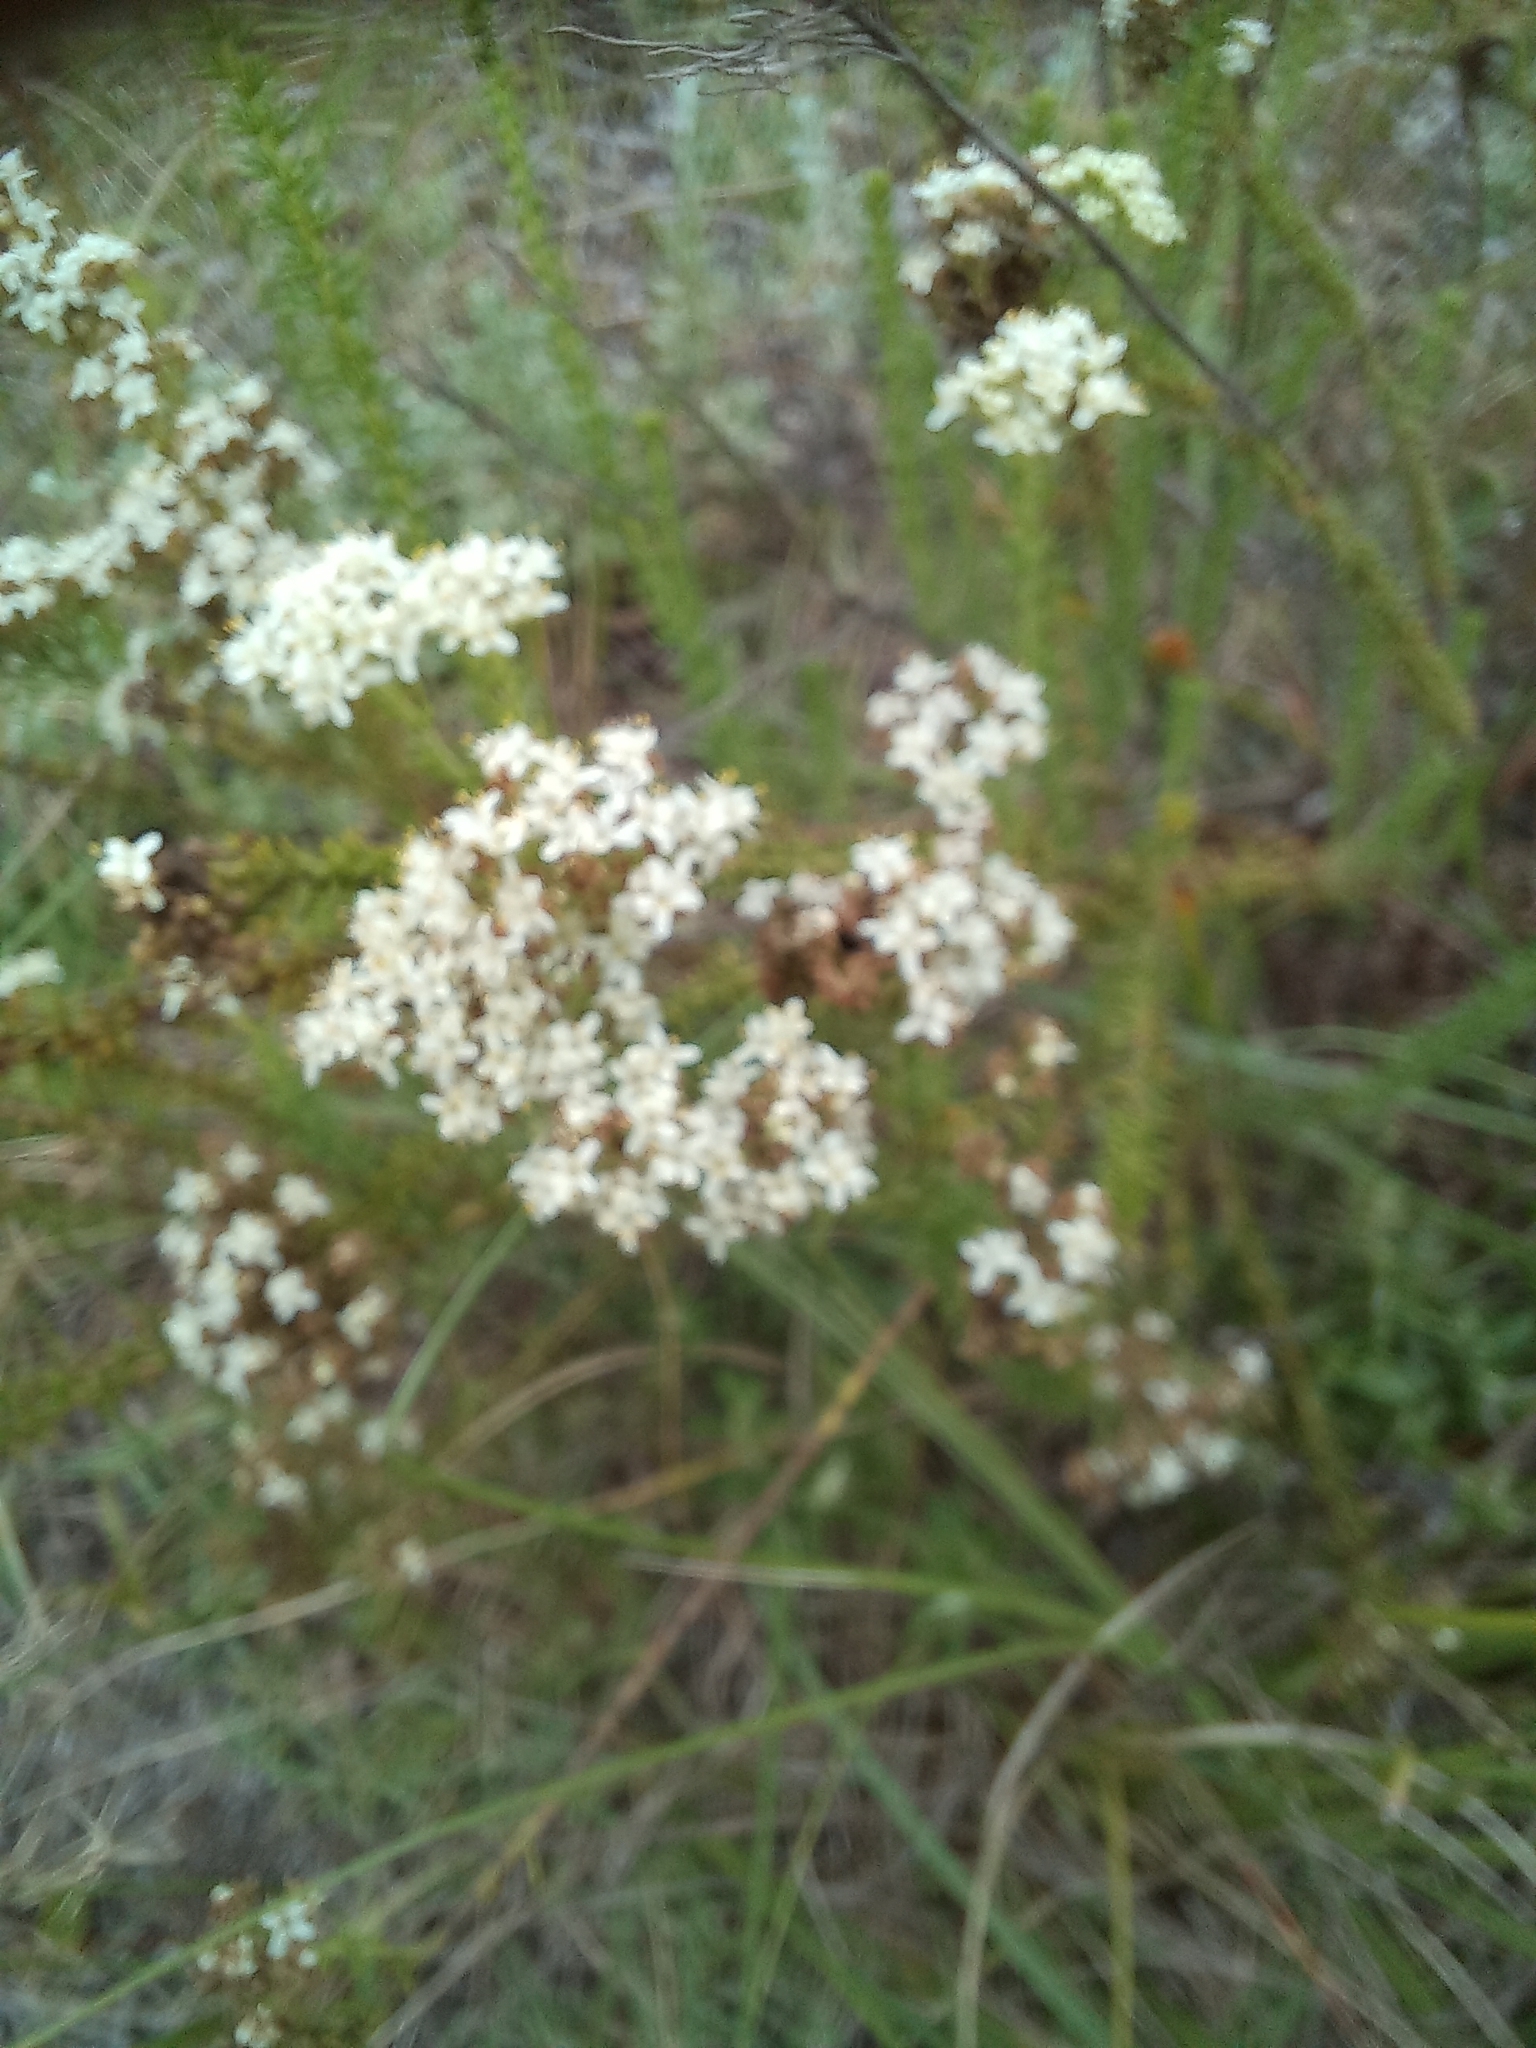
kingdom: Plantae
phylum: Tracheophyta
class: Magnoliopsida
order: Lamiales
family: Scrophulariaceae
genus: Selago
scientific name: Selago corymbosa
